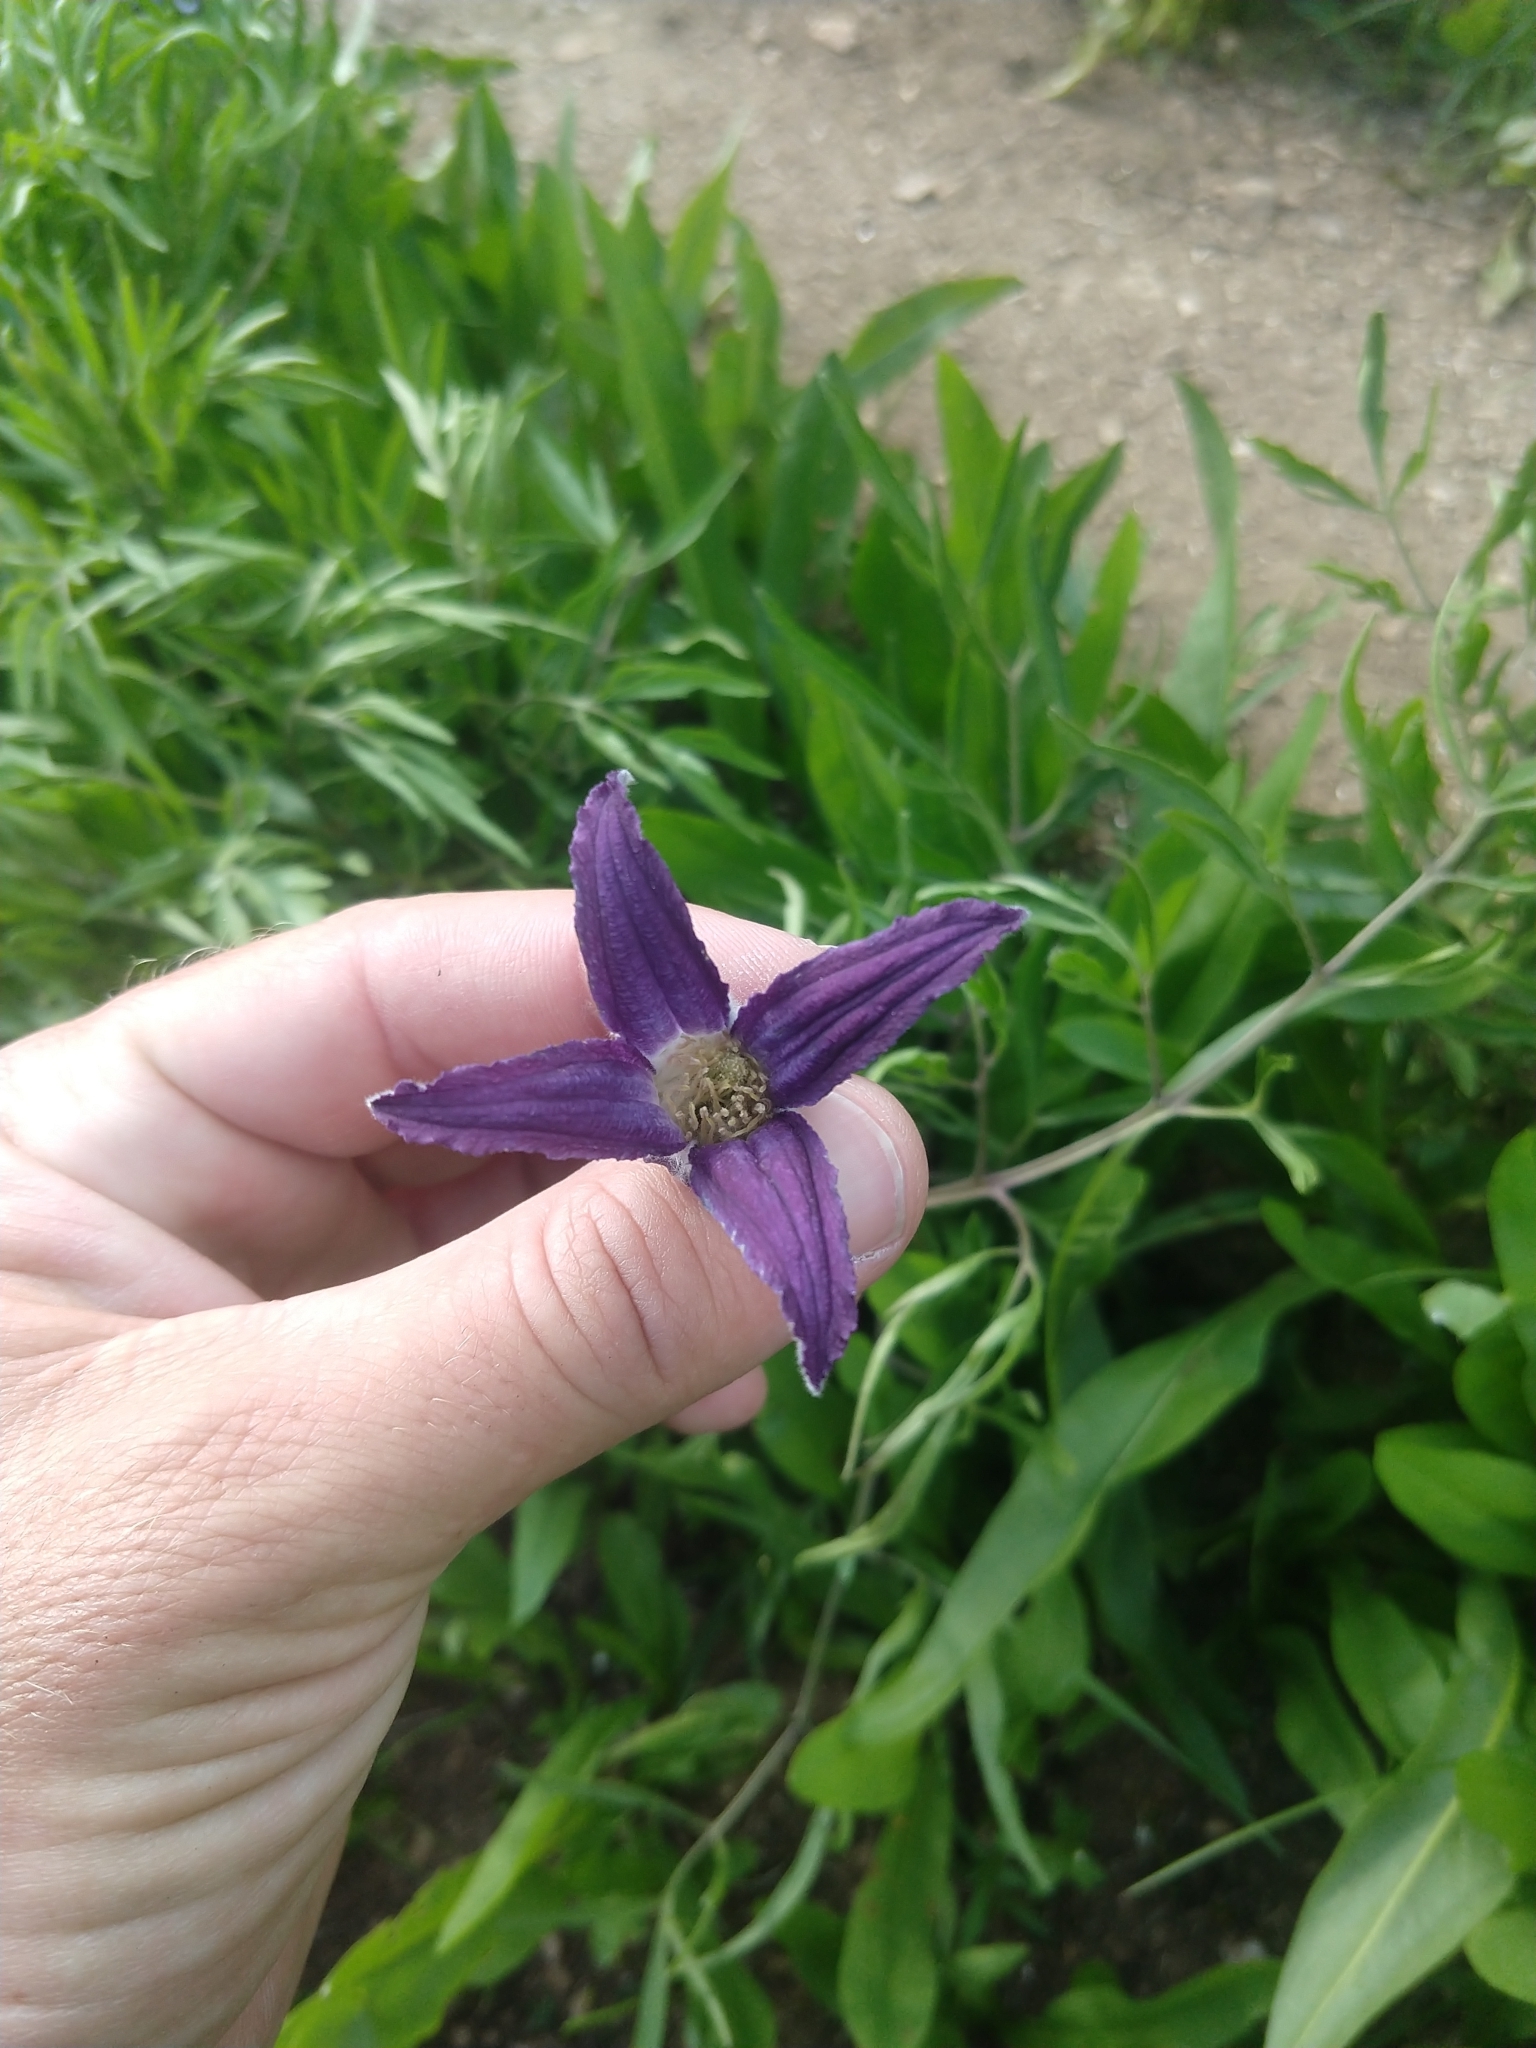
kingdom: Plantae
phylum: Tracheophyta
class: Magnoliopsida
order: Ranunculales
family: Ranunculaceae
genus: Clematis
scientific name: Clematis hirsutissima
